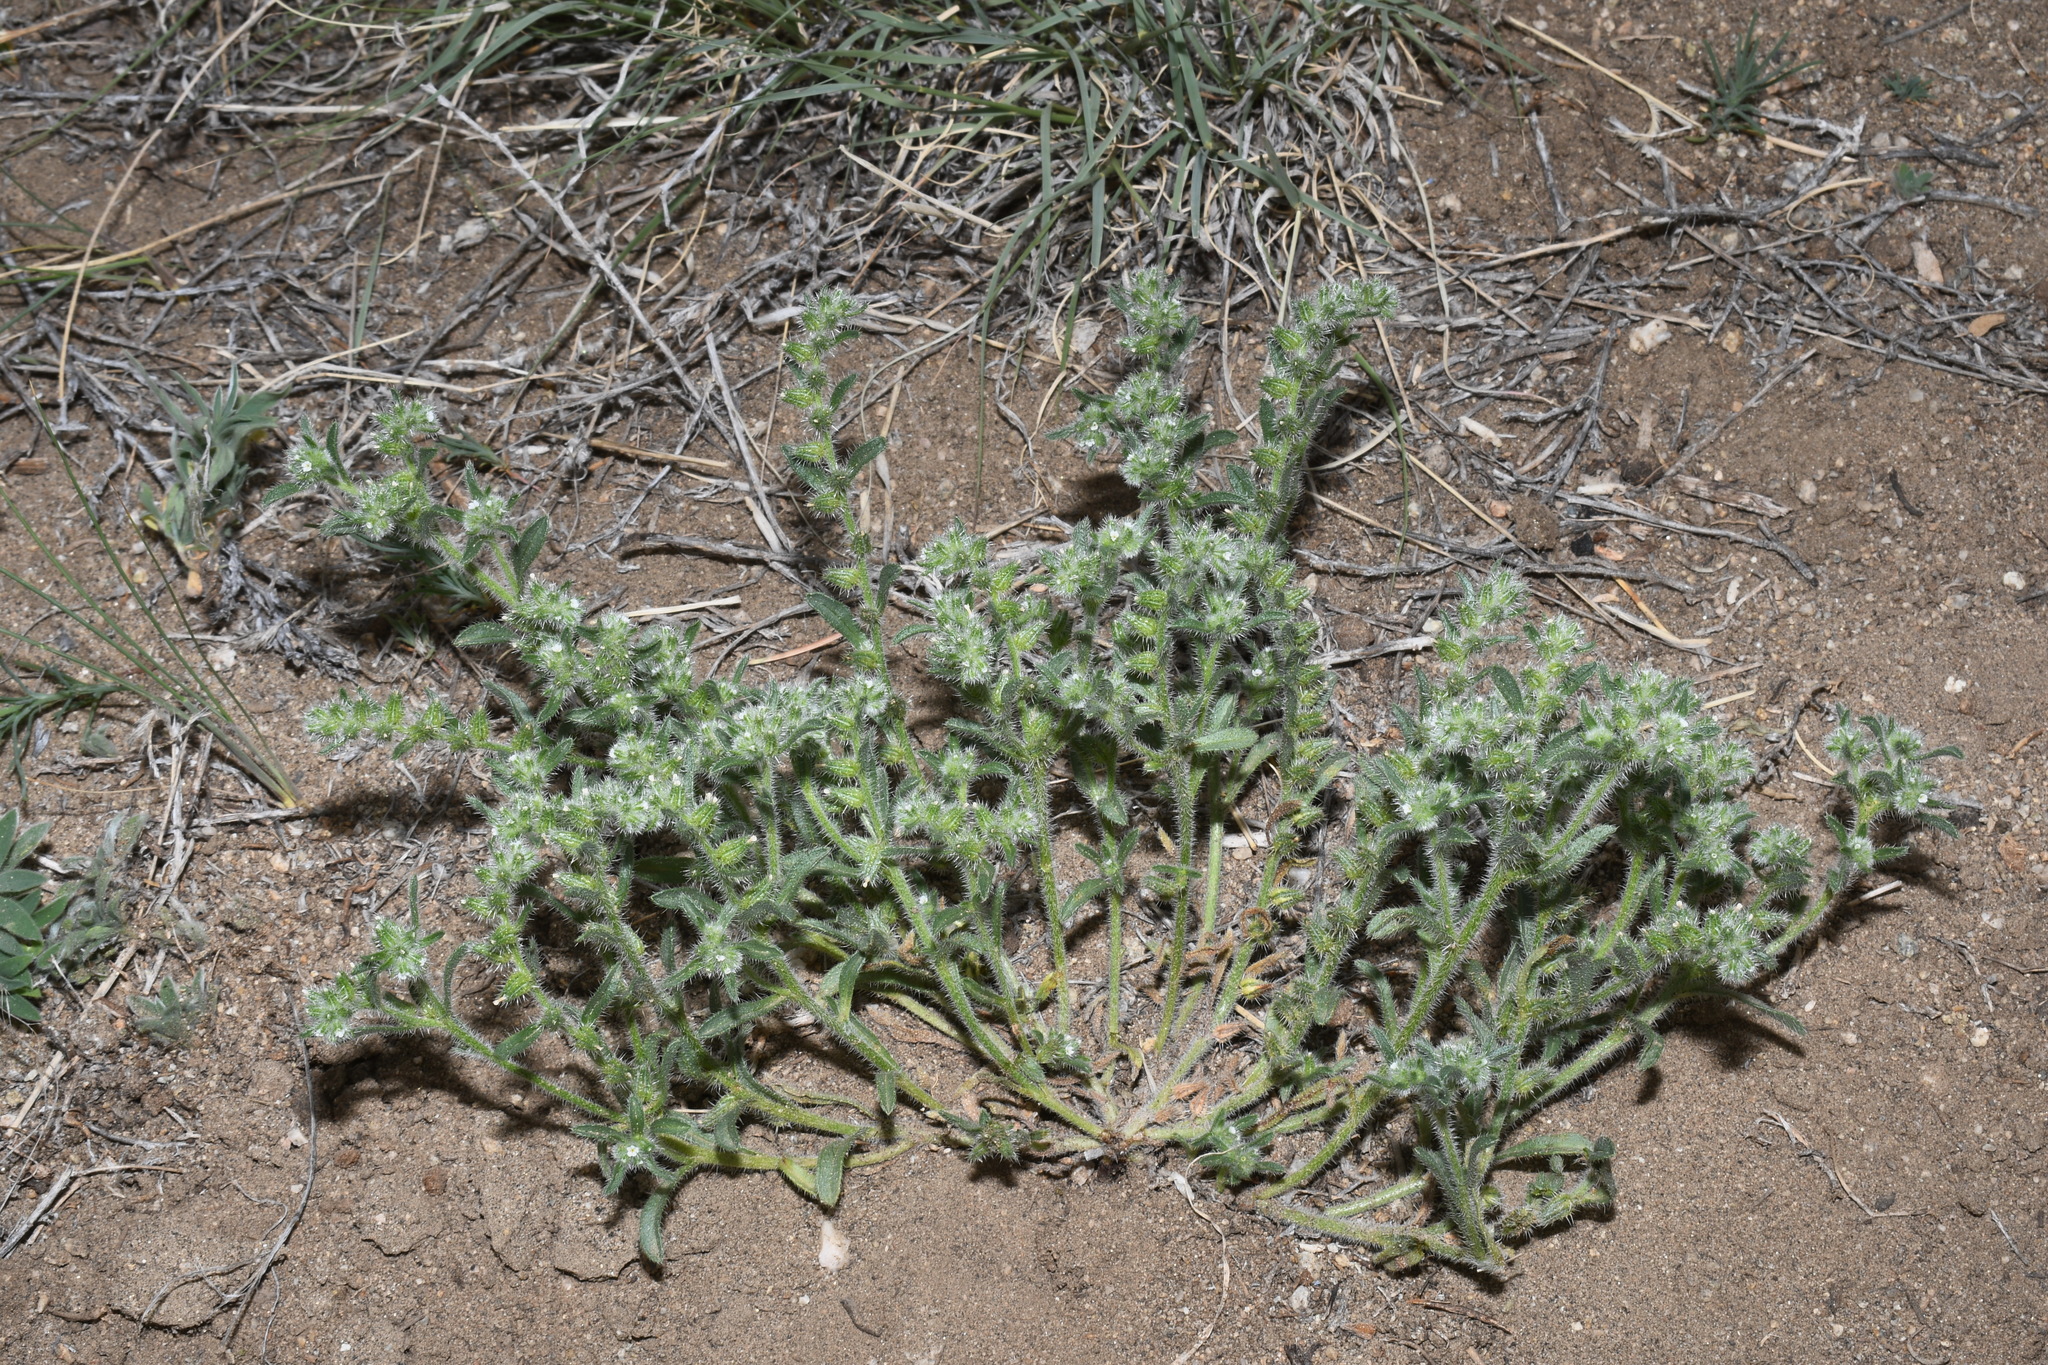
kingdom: Plantae
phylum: Tracheophyta
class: Magnoliopsida
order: Boraginales
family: Boraginaceae
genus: Cryptantha
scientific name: Cryptantha crassisepala
